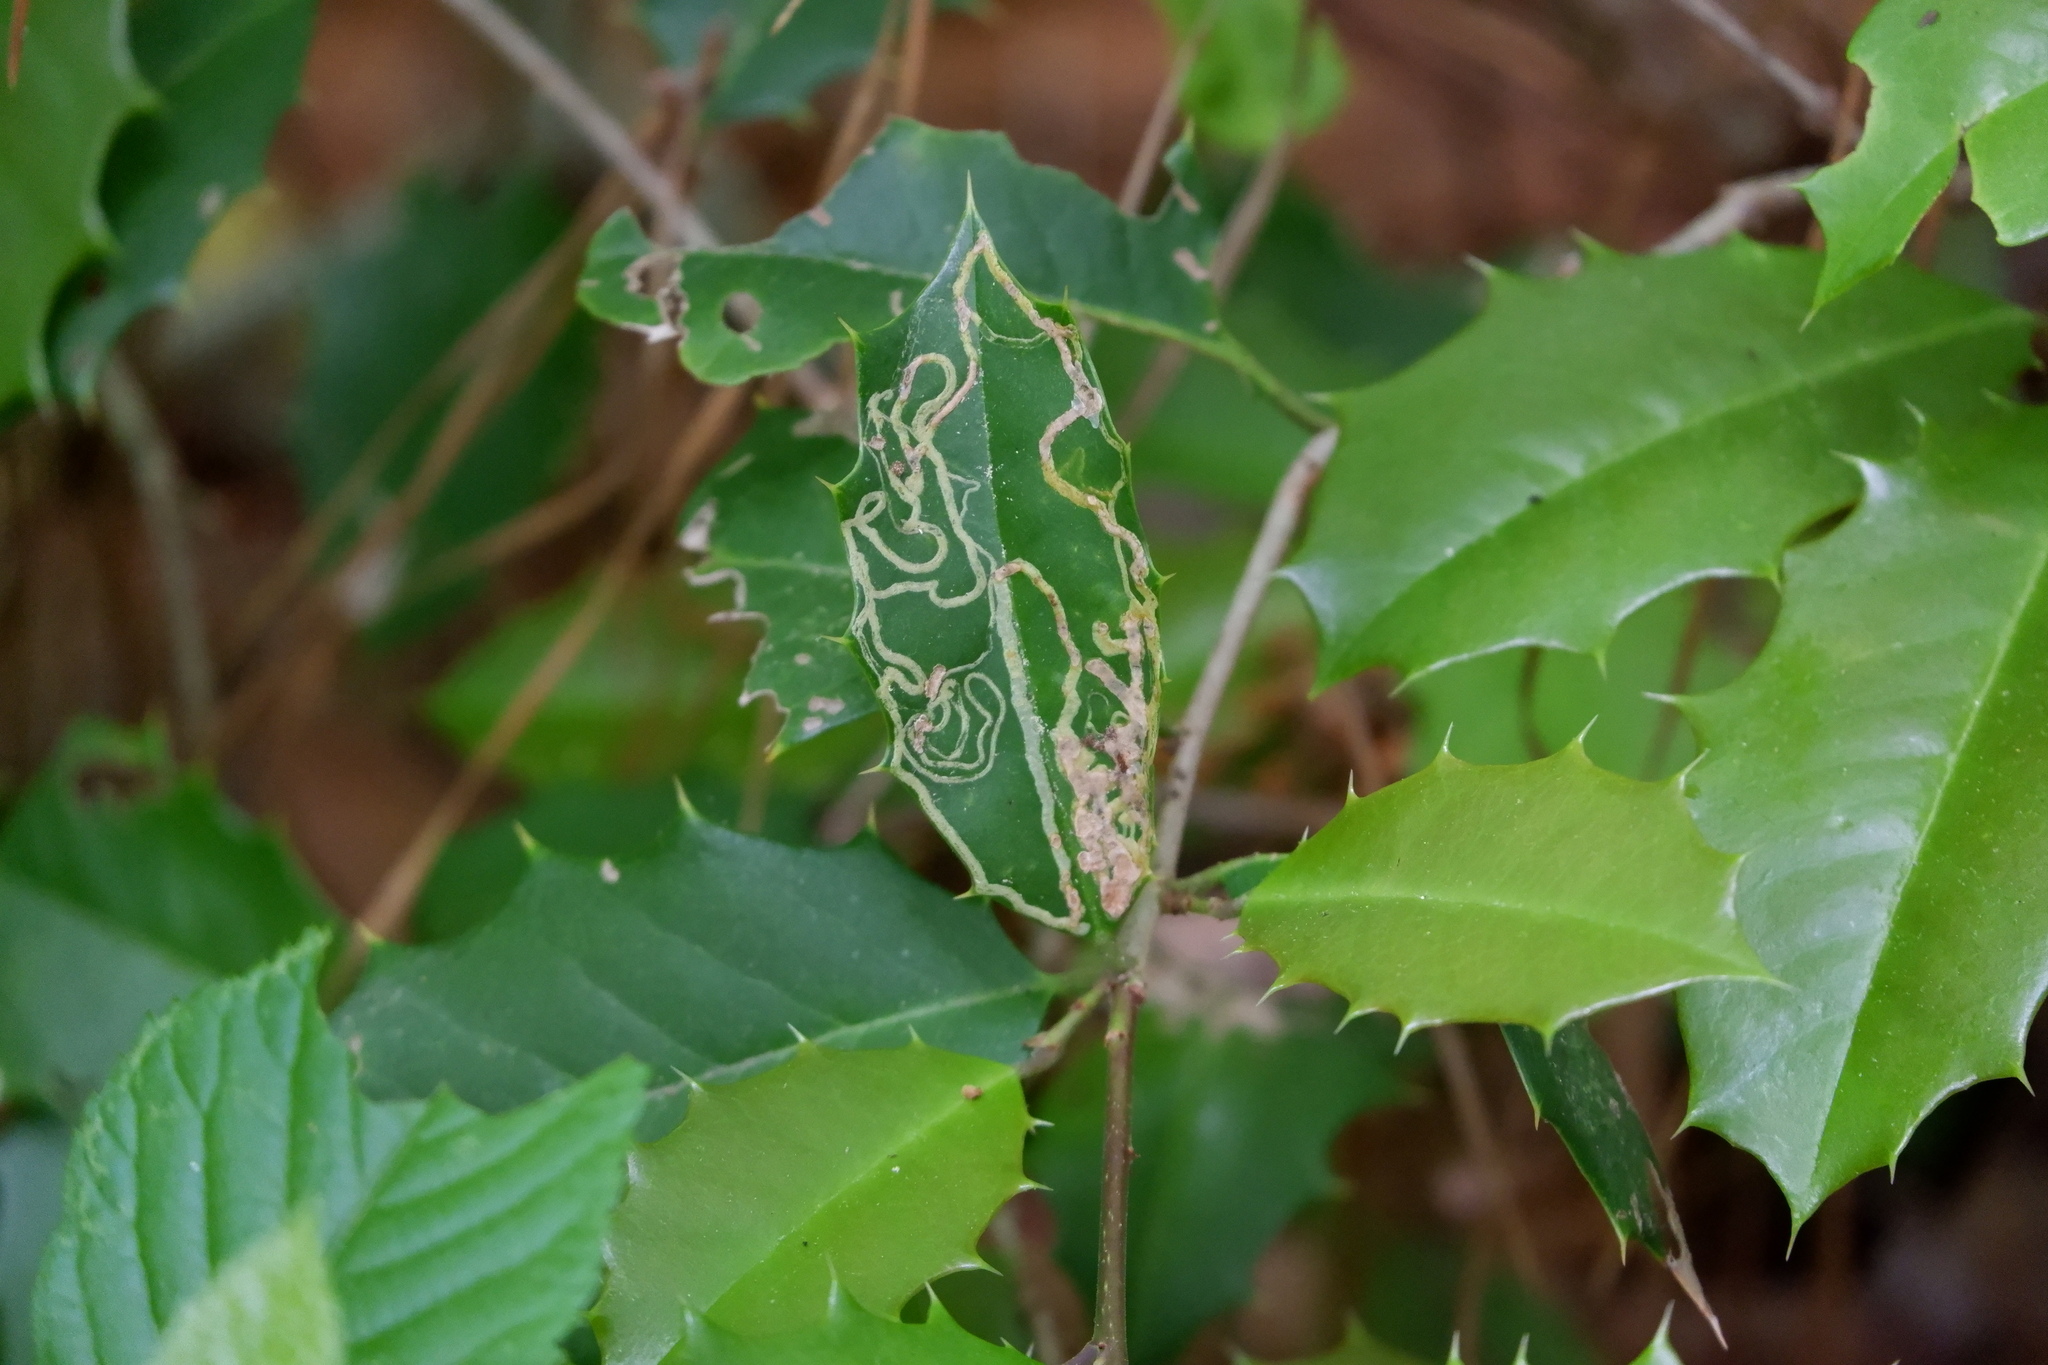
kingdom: Animalia
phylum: Arthropoda
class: Insecta
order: Diptera
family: Agromyzidae
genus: Phytomyza
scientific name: Phytomyza opacae
